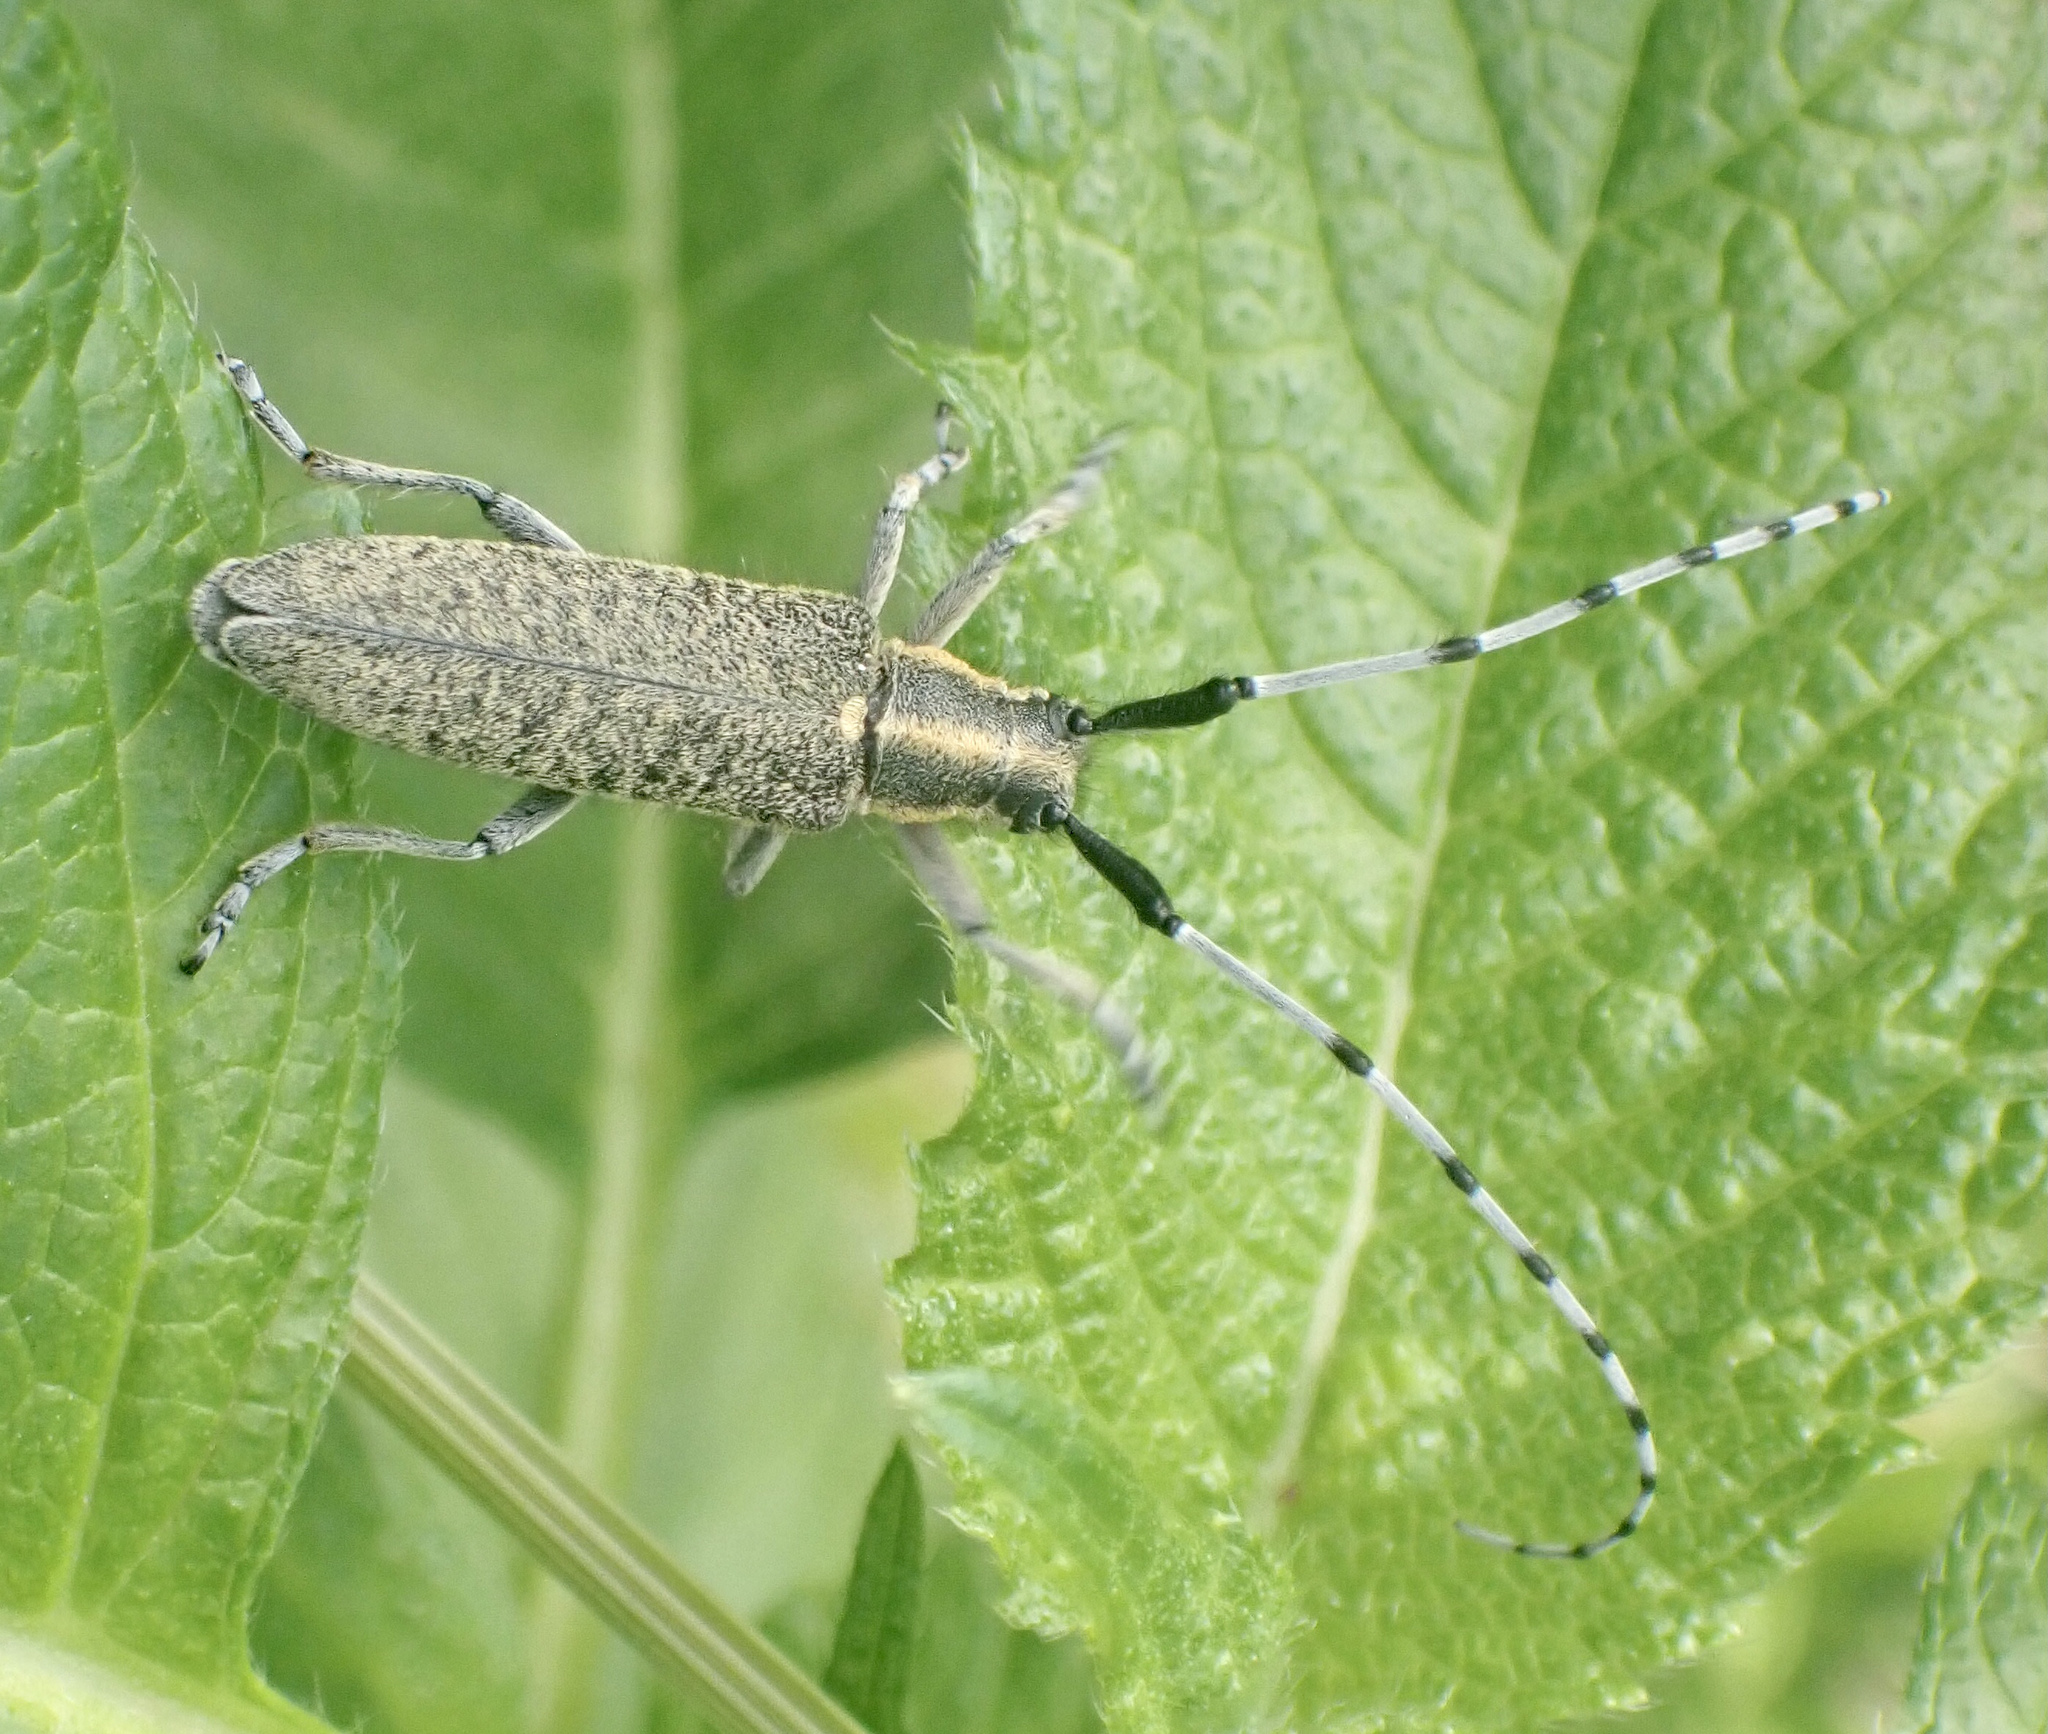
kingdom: Animalia
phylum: Arthropoda
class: Insecta
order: Coleoptera
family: Cerambycidae
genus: Agapanthia
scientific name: Agapanthia villosoviridescens
